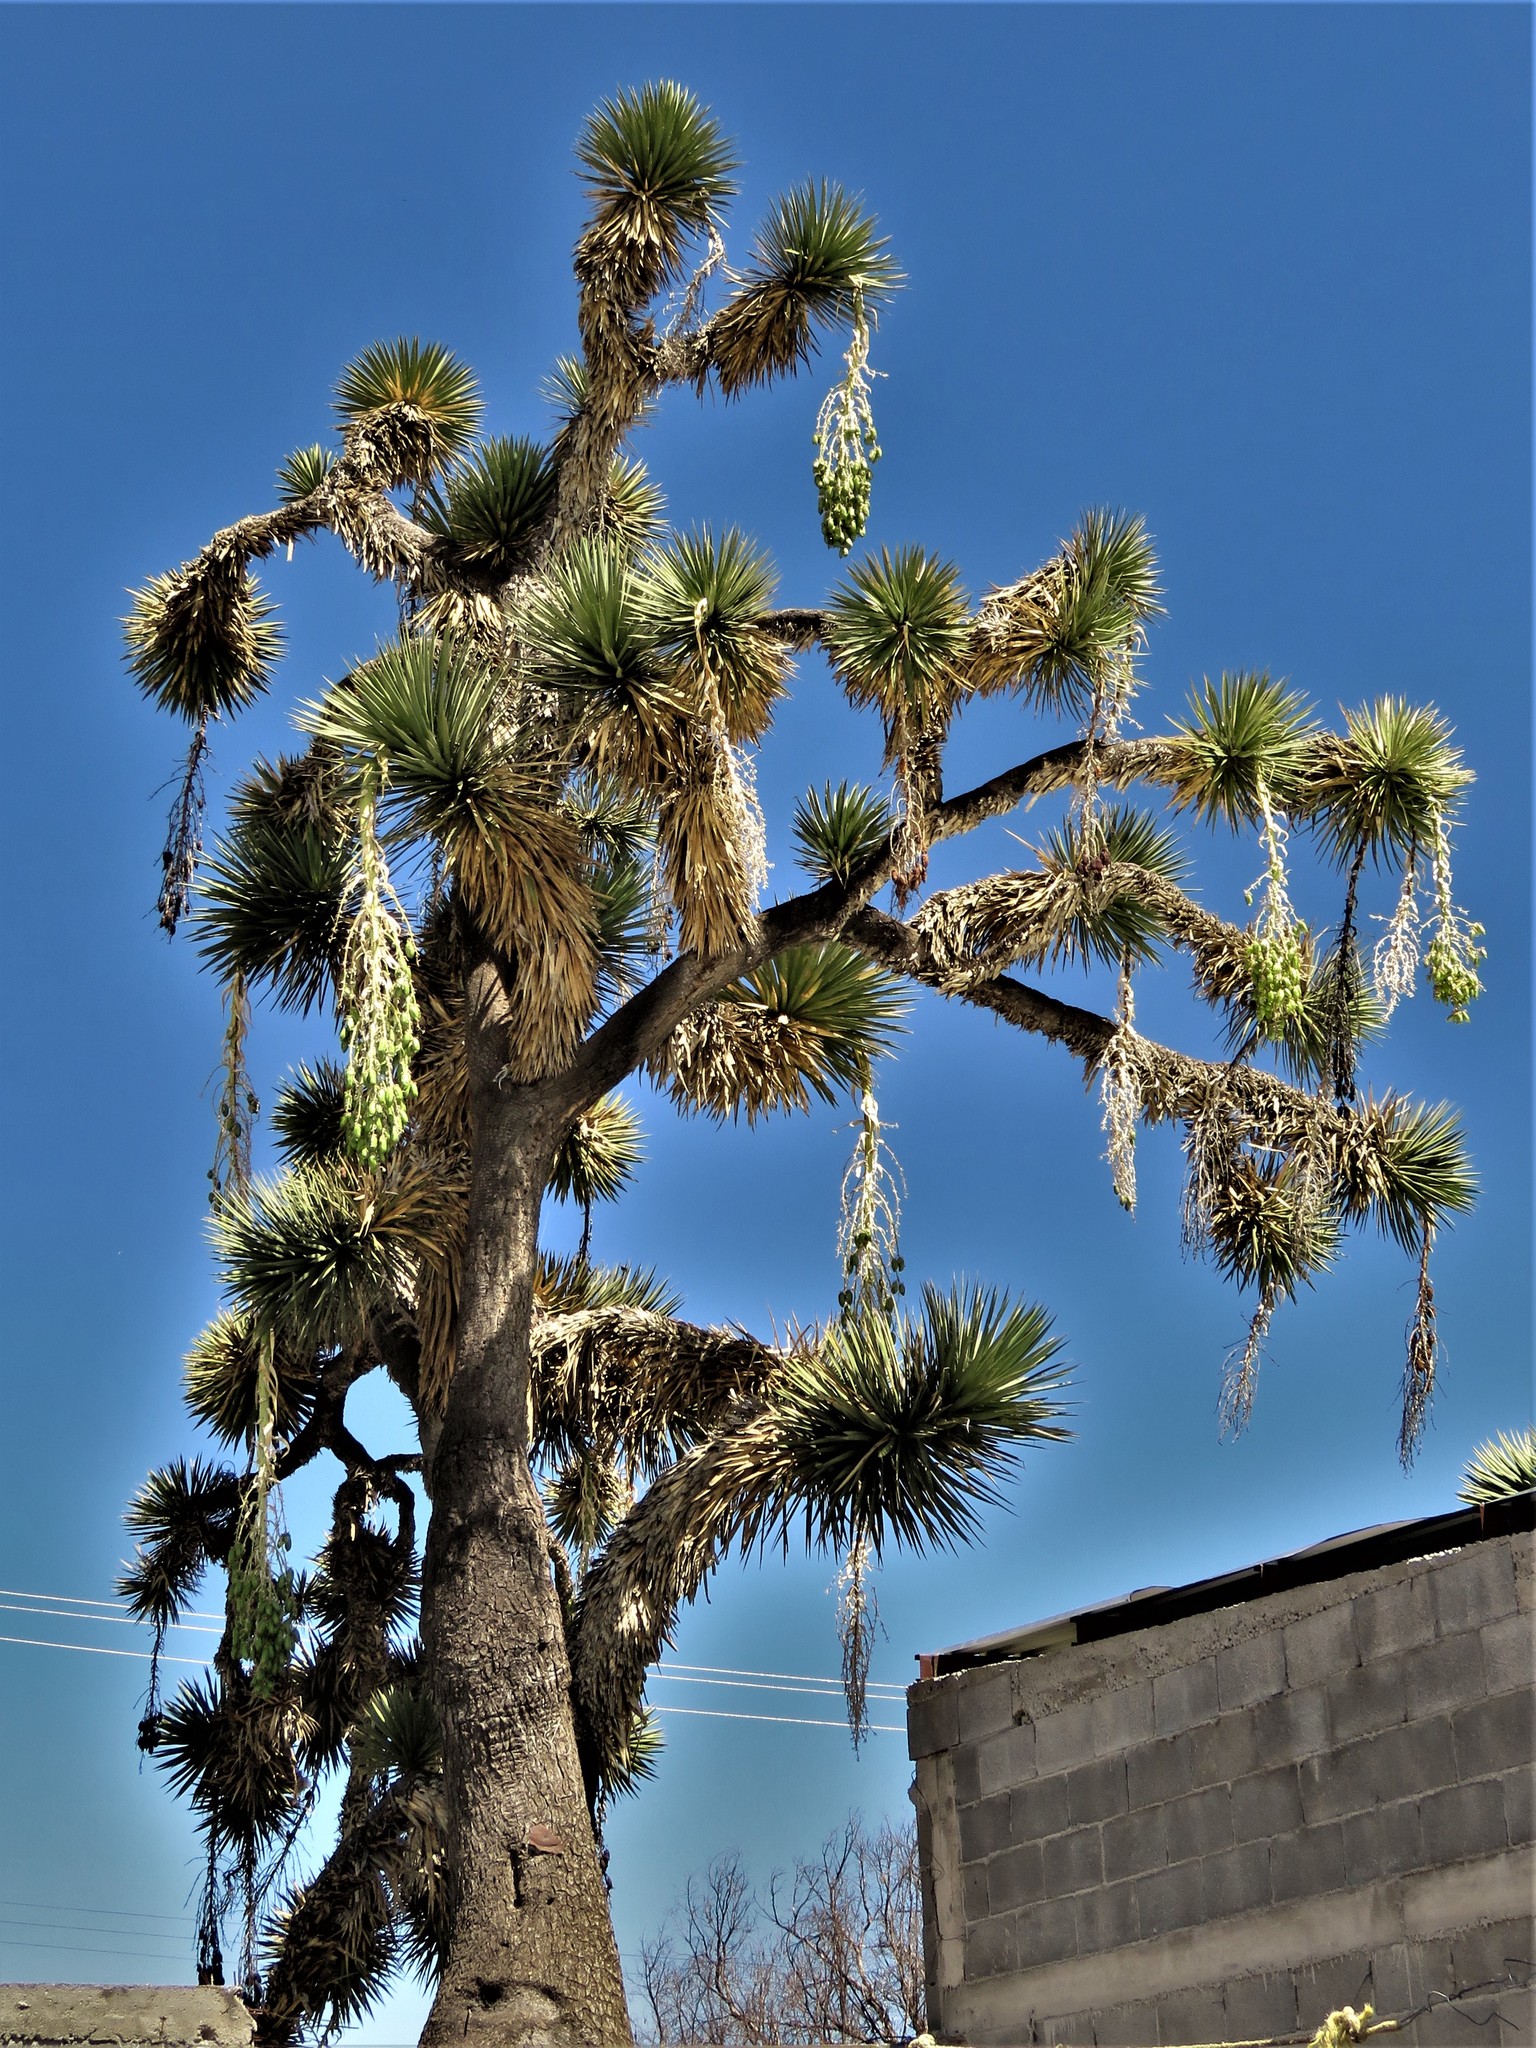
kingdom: Plantae
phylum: Tracheophyta
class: Liliopsida
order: Asparagales
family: Asparagaceae
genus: Yucca
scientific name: Yucca filifera
